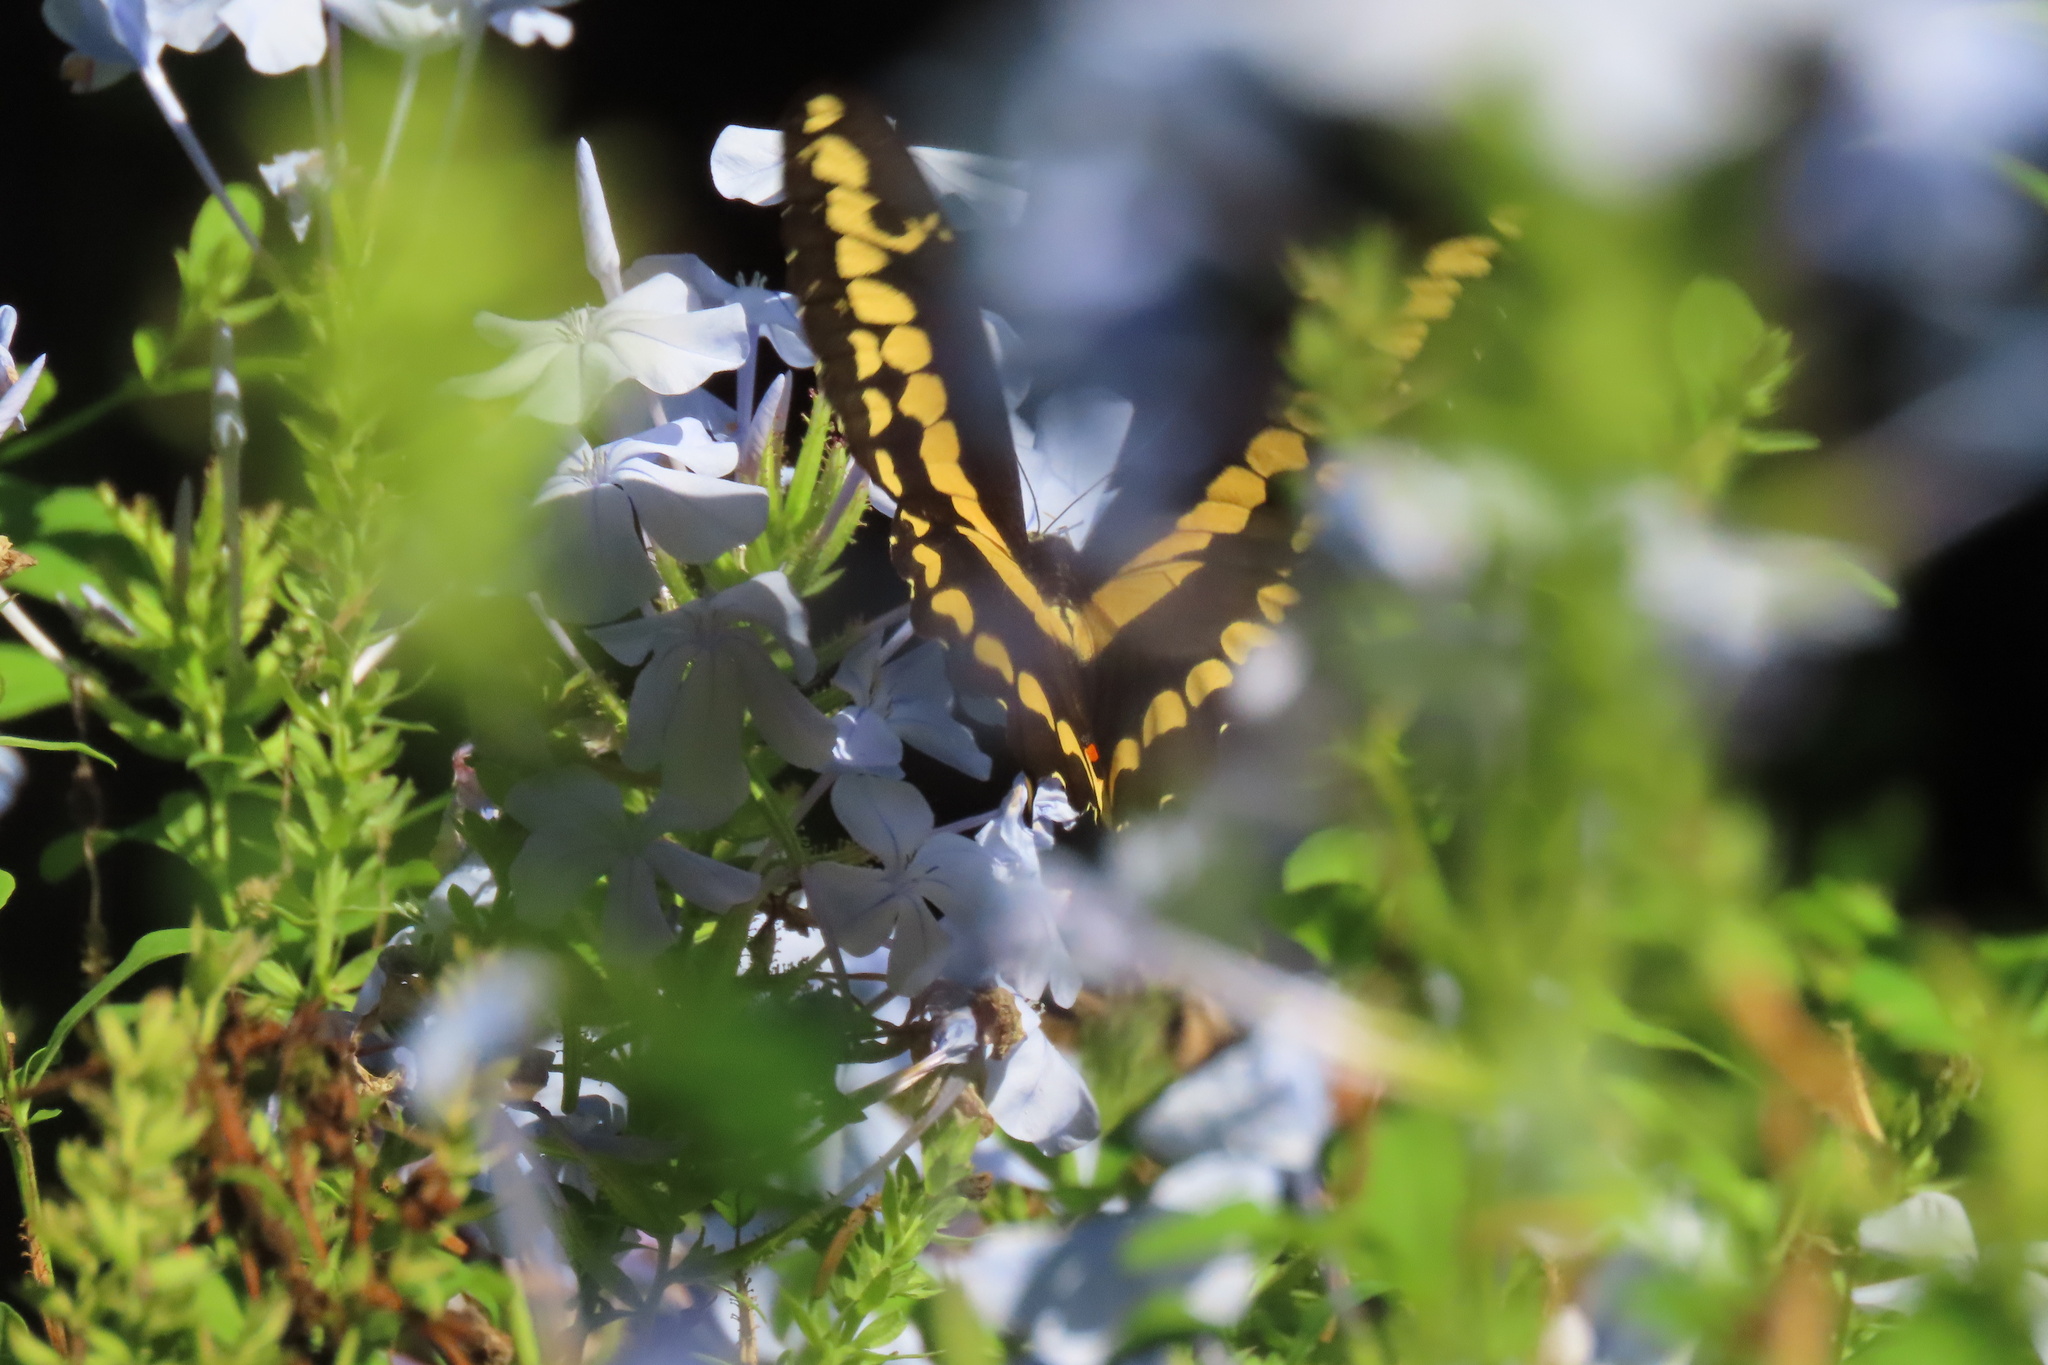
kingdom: Animalia
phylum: Arthropoda
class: Insecta
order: Lepidoptera
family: Papilionidae
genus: Papilio
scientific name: Papilio rumiko
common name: Western giant swallowtail
